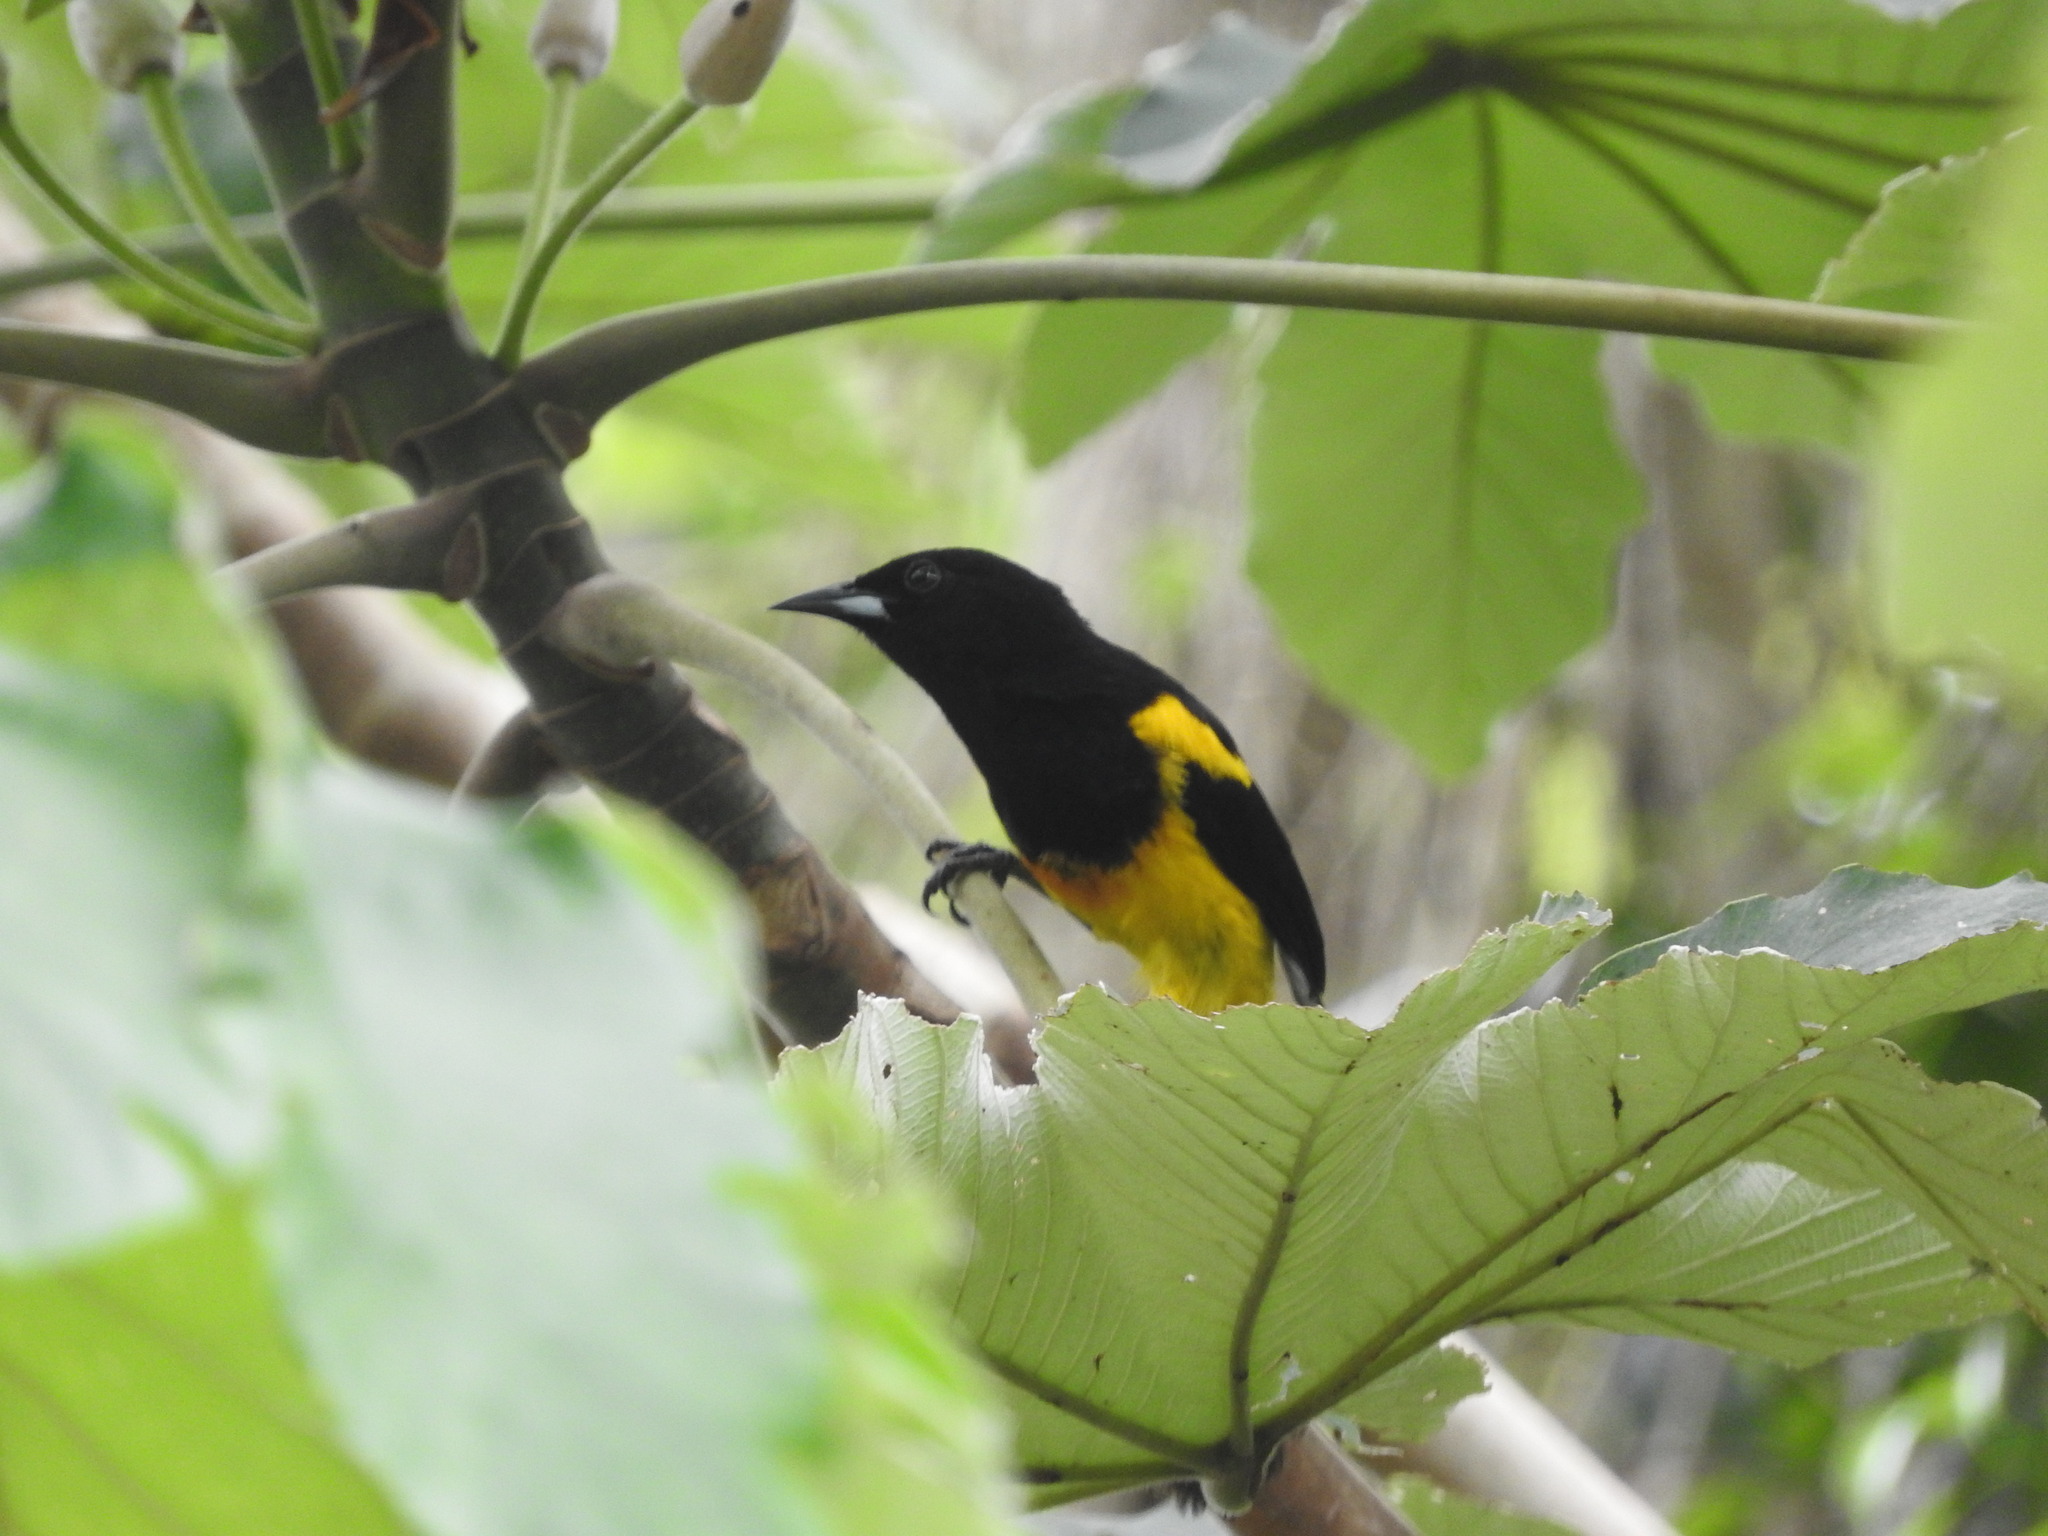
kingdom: Animalia
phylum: Chordata
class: Aves
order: Passeriformes
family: Icteridae
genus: Icterus
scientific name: Icterus prosthemelas
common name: Black-cowled oriole
